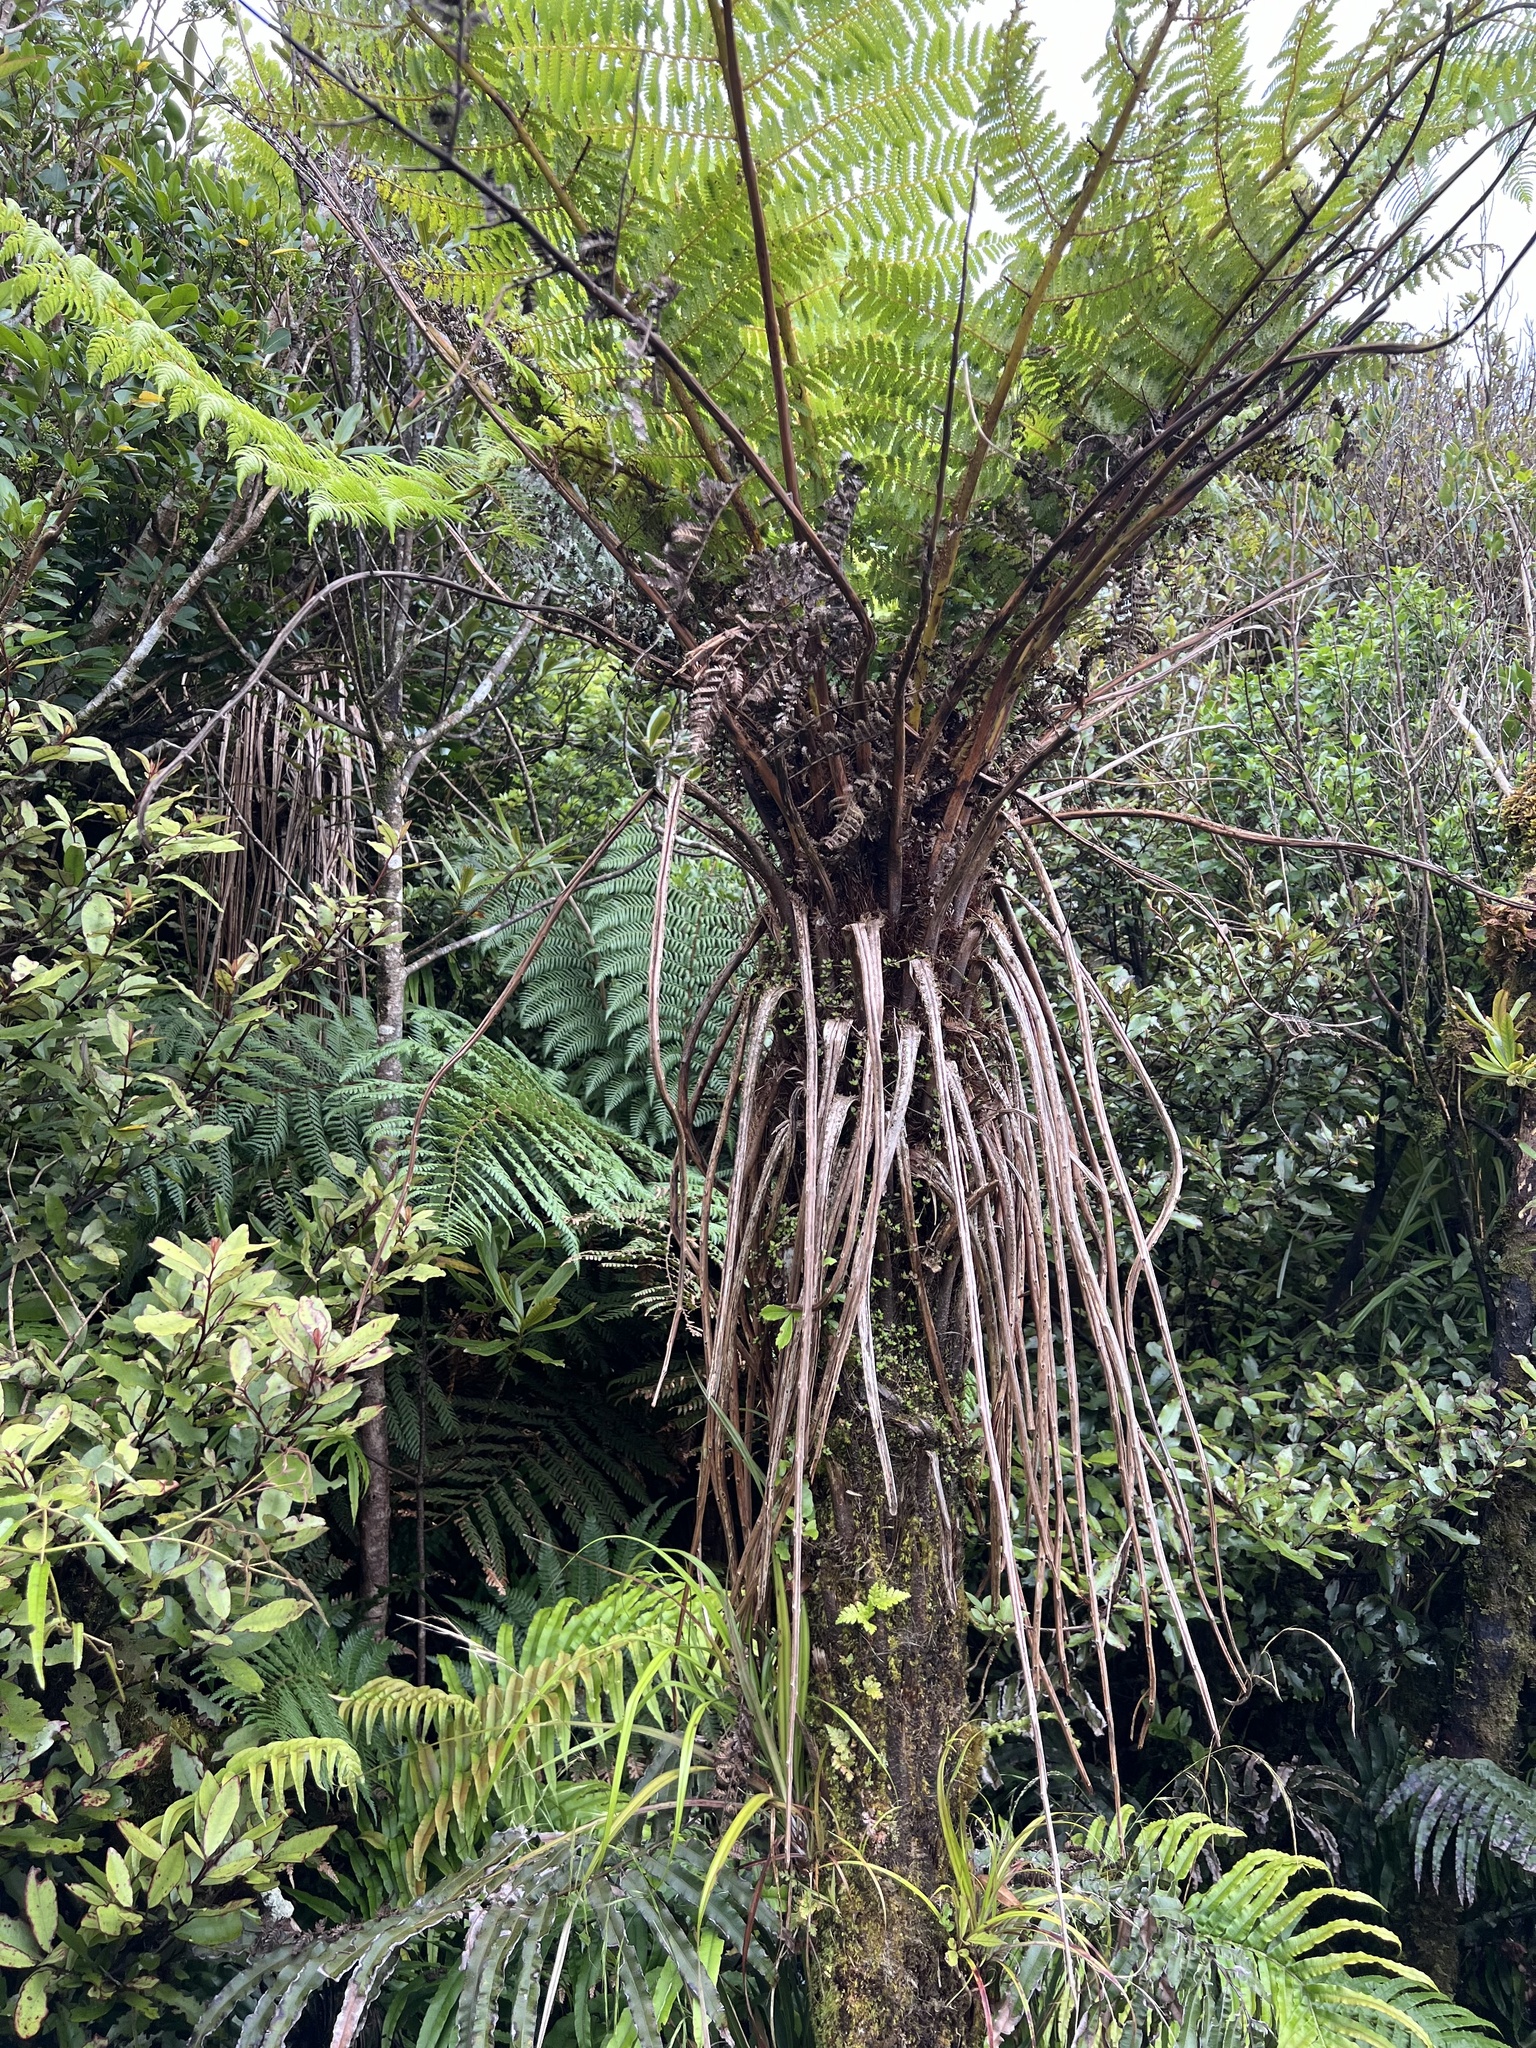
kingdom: Plantae
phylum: Tracheophyta
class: Polypodiopsida
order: Cyatheales
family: Cyatheaceae
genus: Alsophila
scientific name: Alsophila smithii
